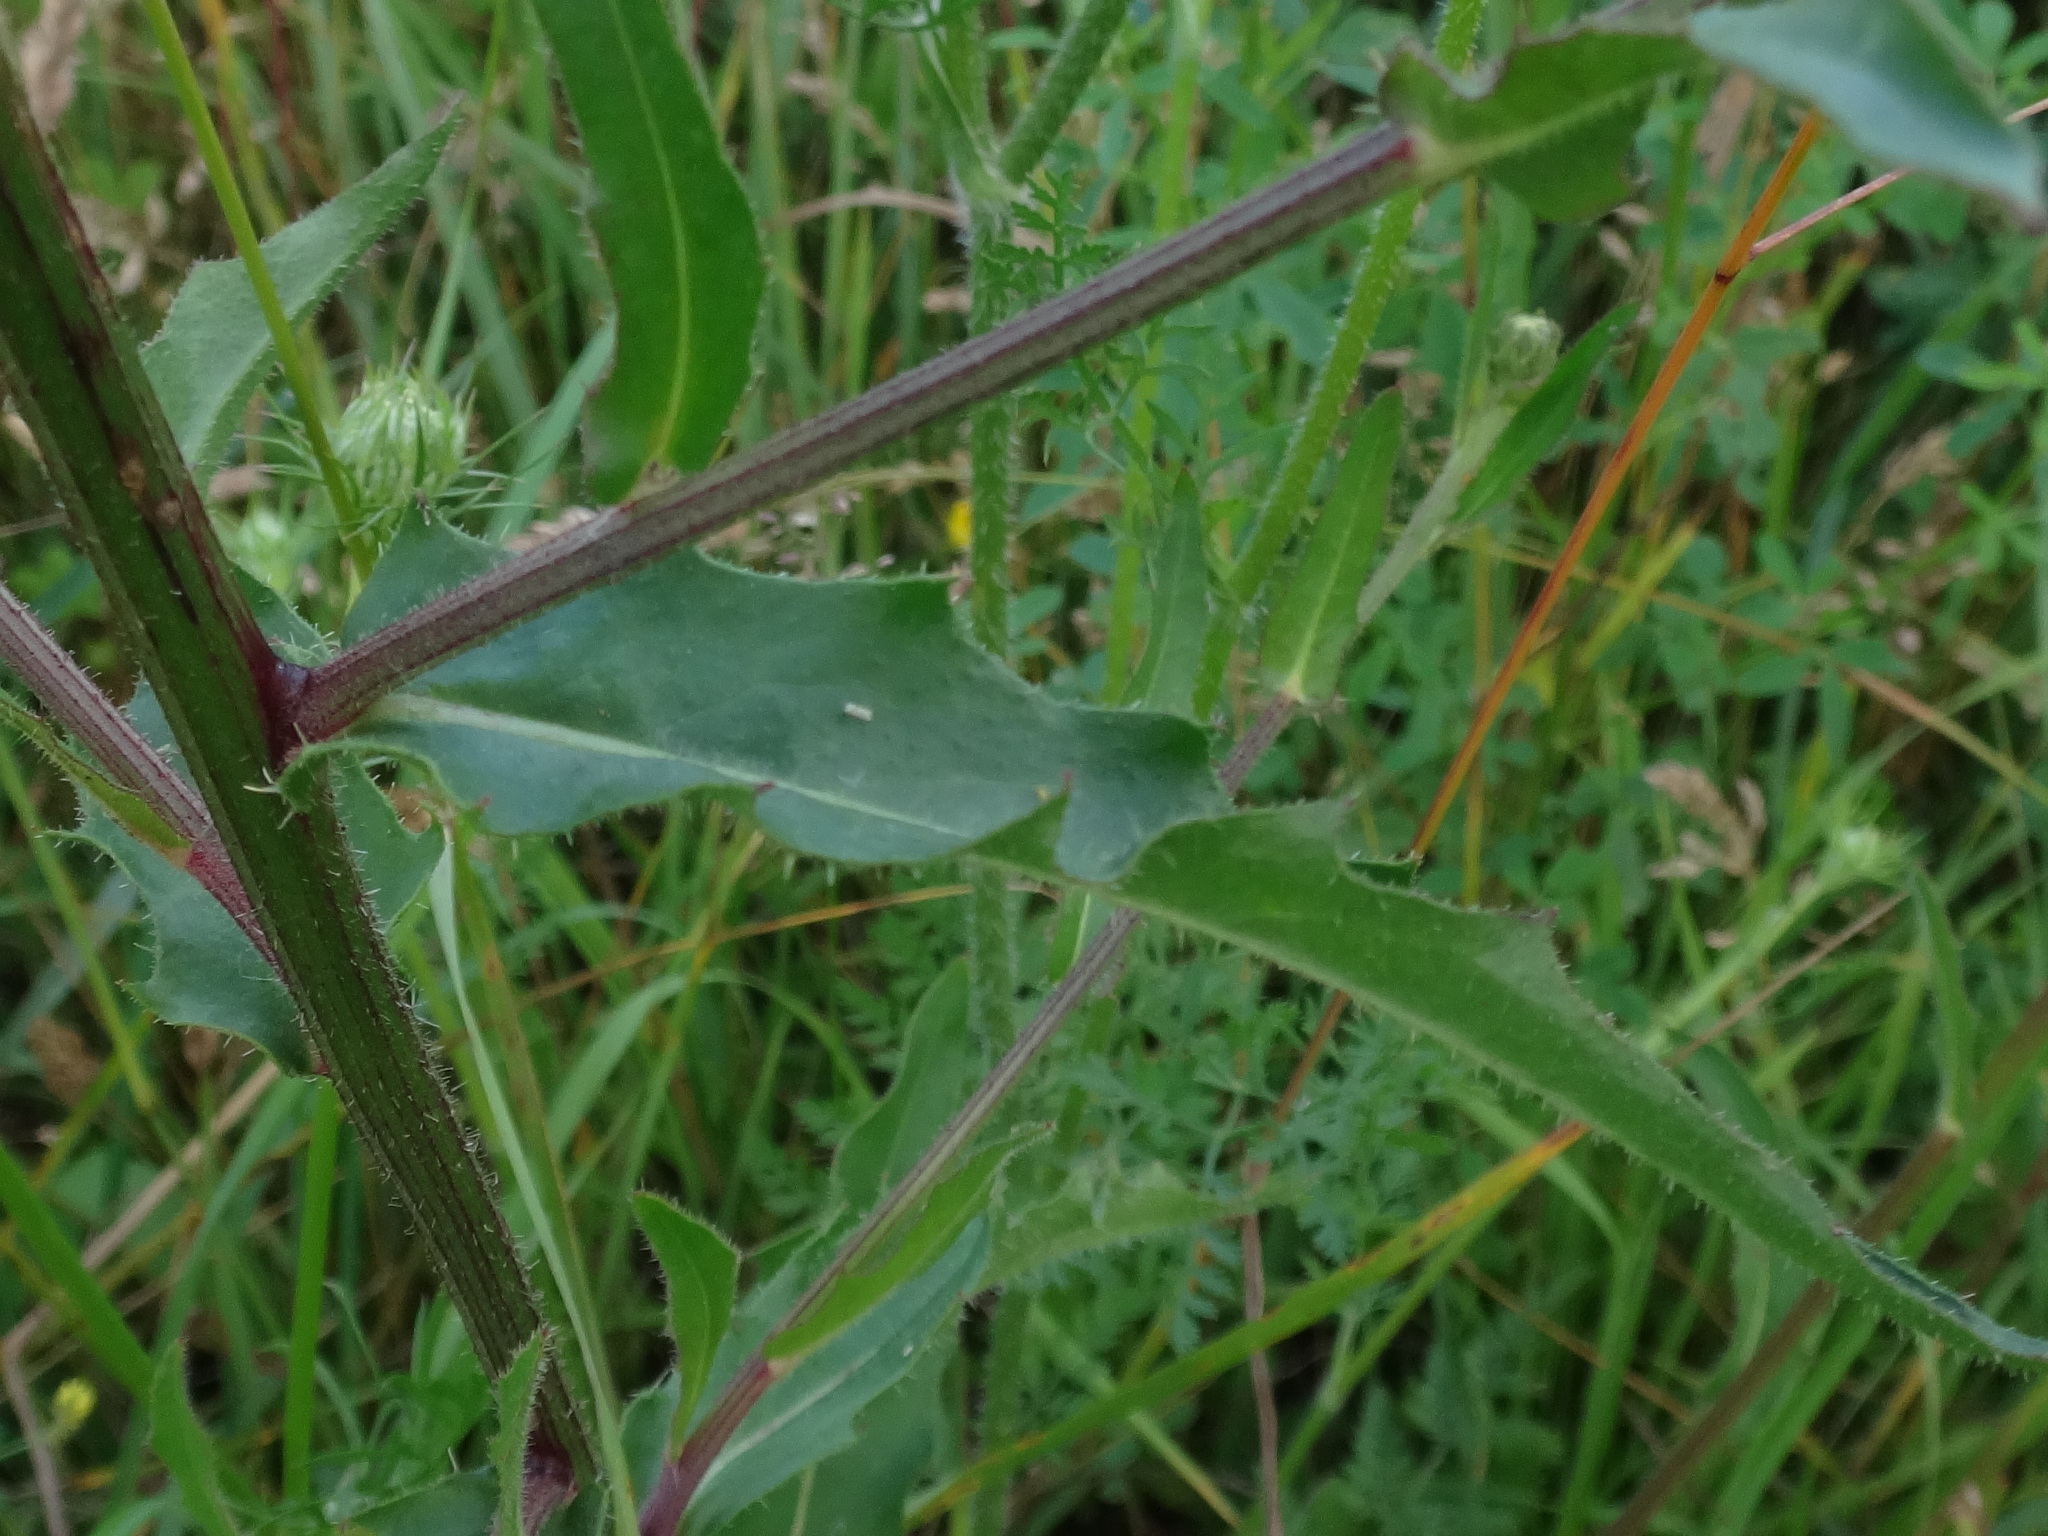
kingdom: Plantae
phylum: Tracheophyta
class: Magnoliopsida
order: Asterales
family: Asteraceae
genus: Picris
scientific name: Picris hieracioides
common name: Hawkweed oxtongue
